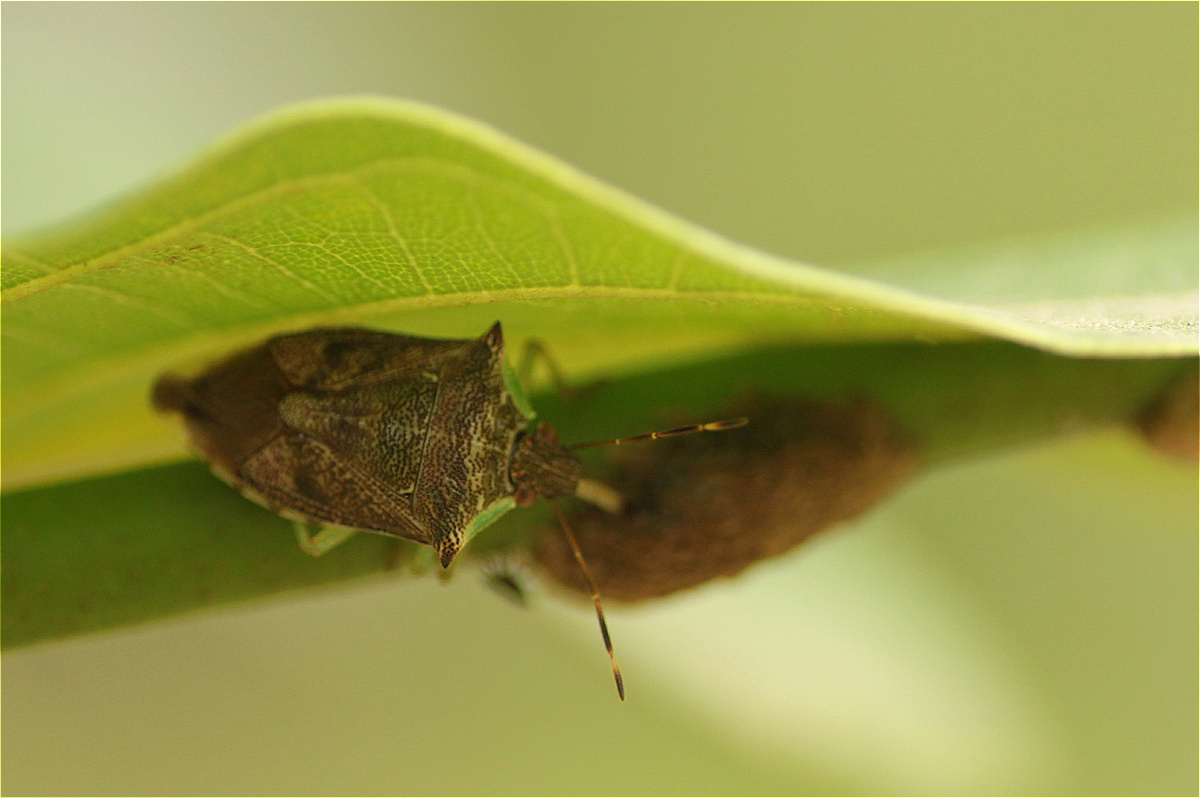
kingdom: Animalia
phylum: Arthropoda
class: Insecta
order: Hemiptera
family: Pentatomidae
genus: Podisus
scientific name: Podisus
